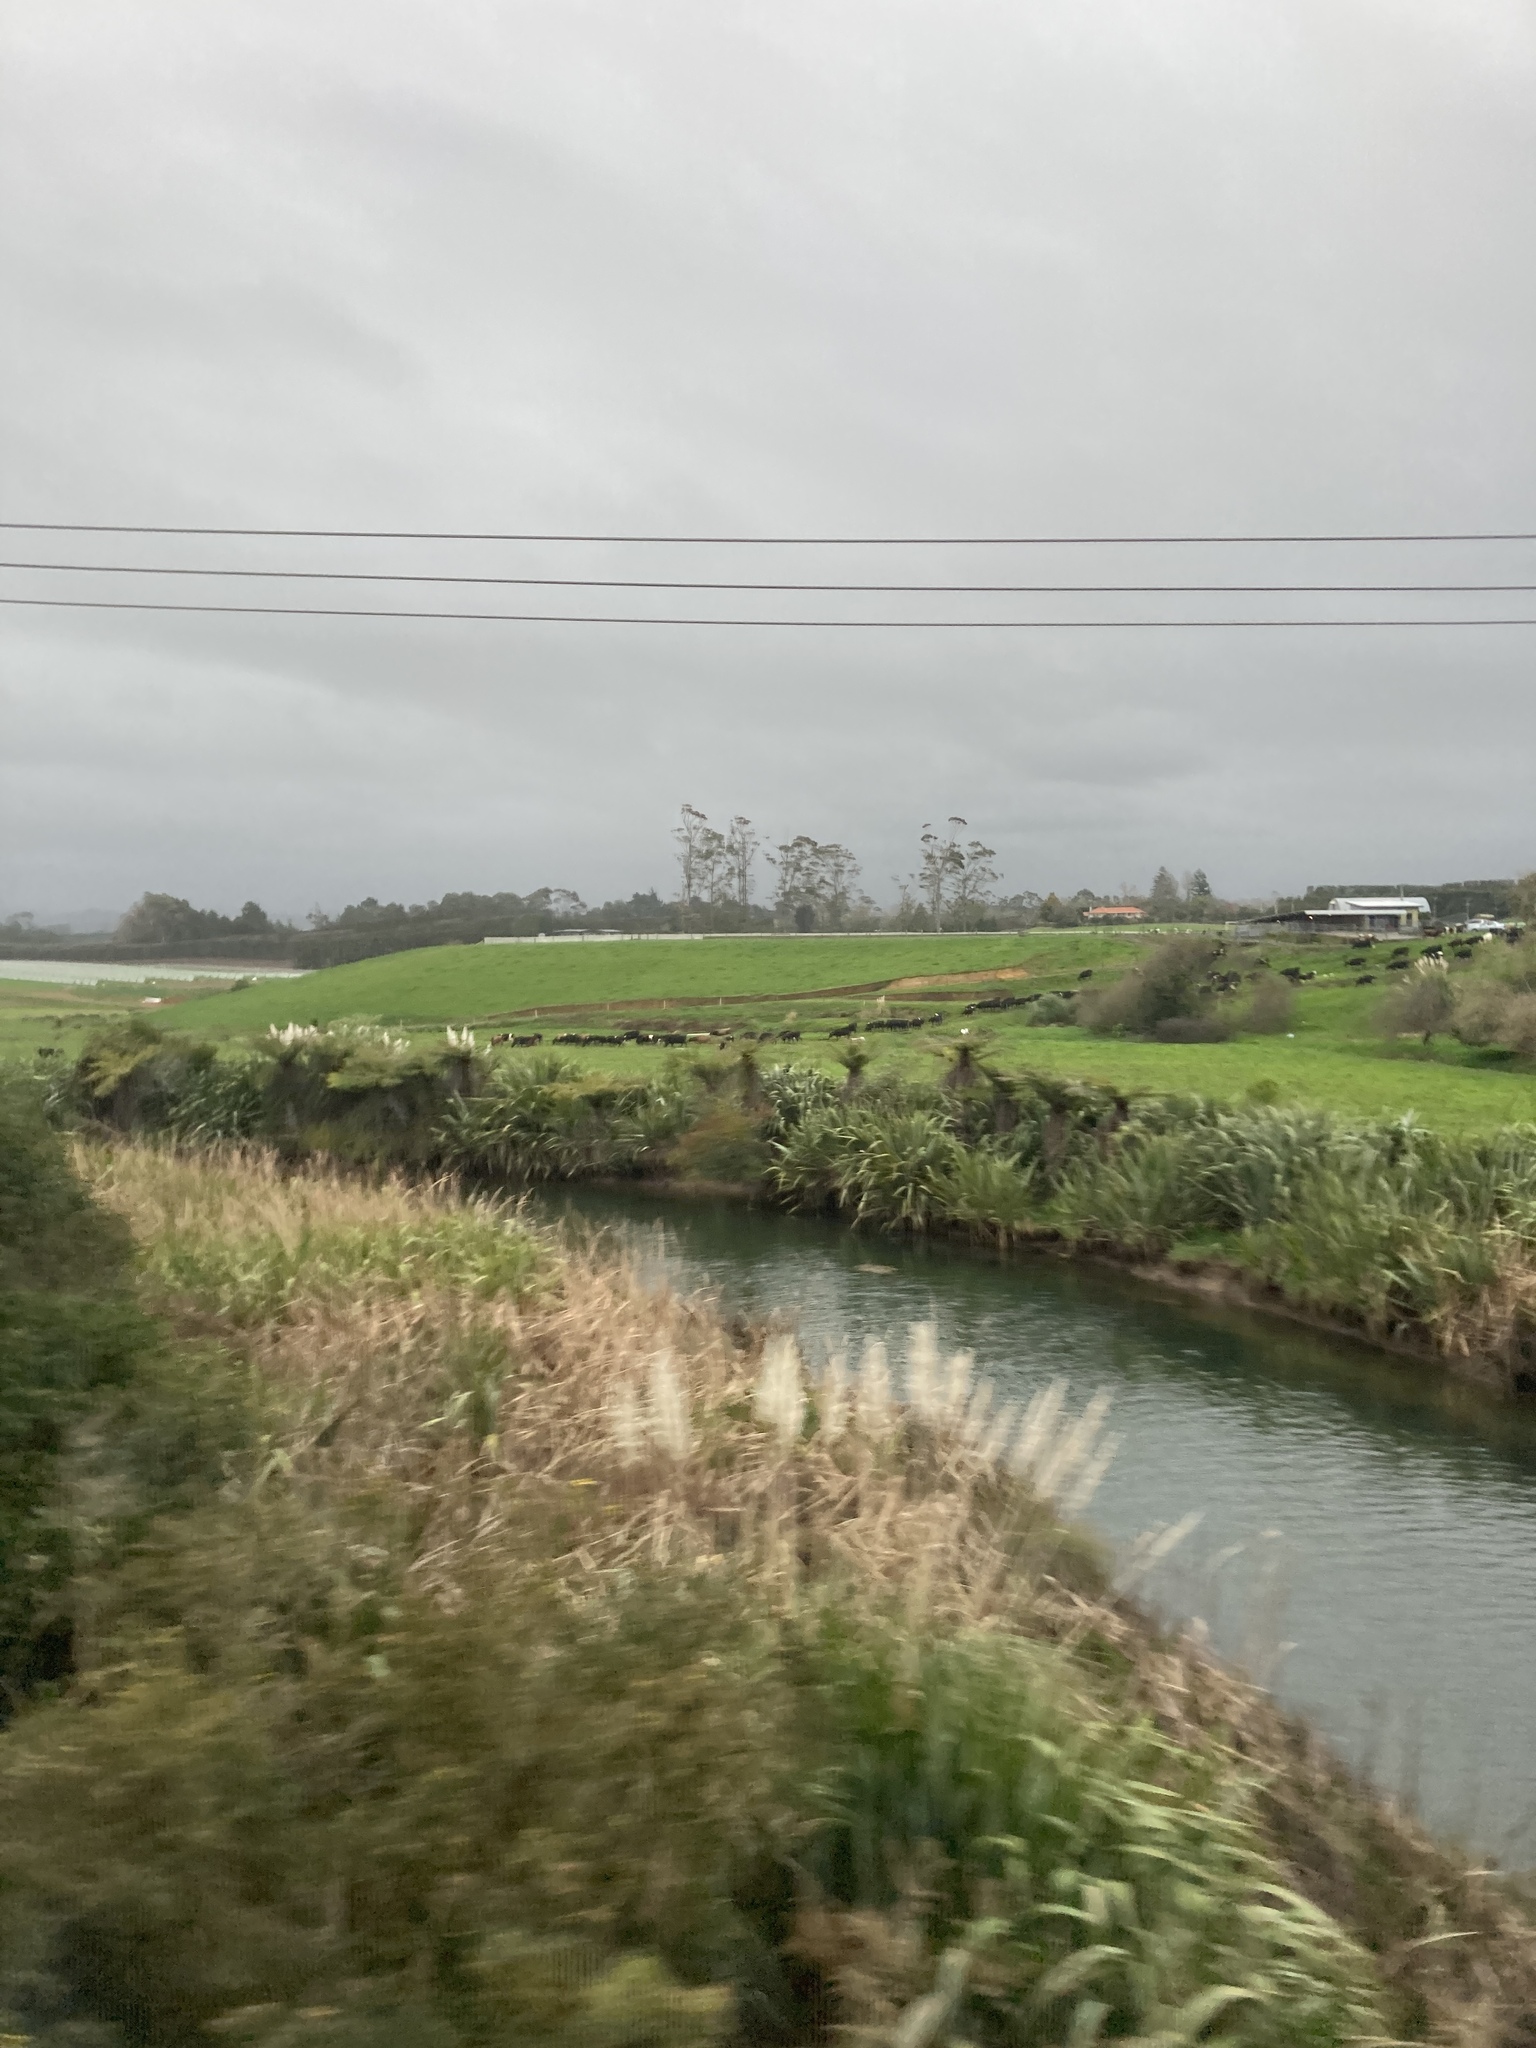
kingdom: Plantae
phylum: Tracheophyta
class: Liliopsida
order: Poales
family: Poaceae
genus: Cortaderia
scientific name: Cortaderia selloana
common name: Uruguayan pampas grass
